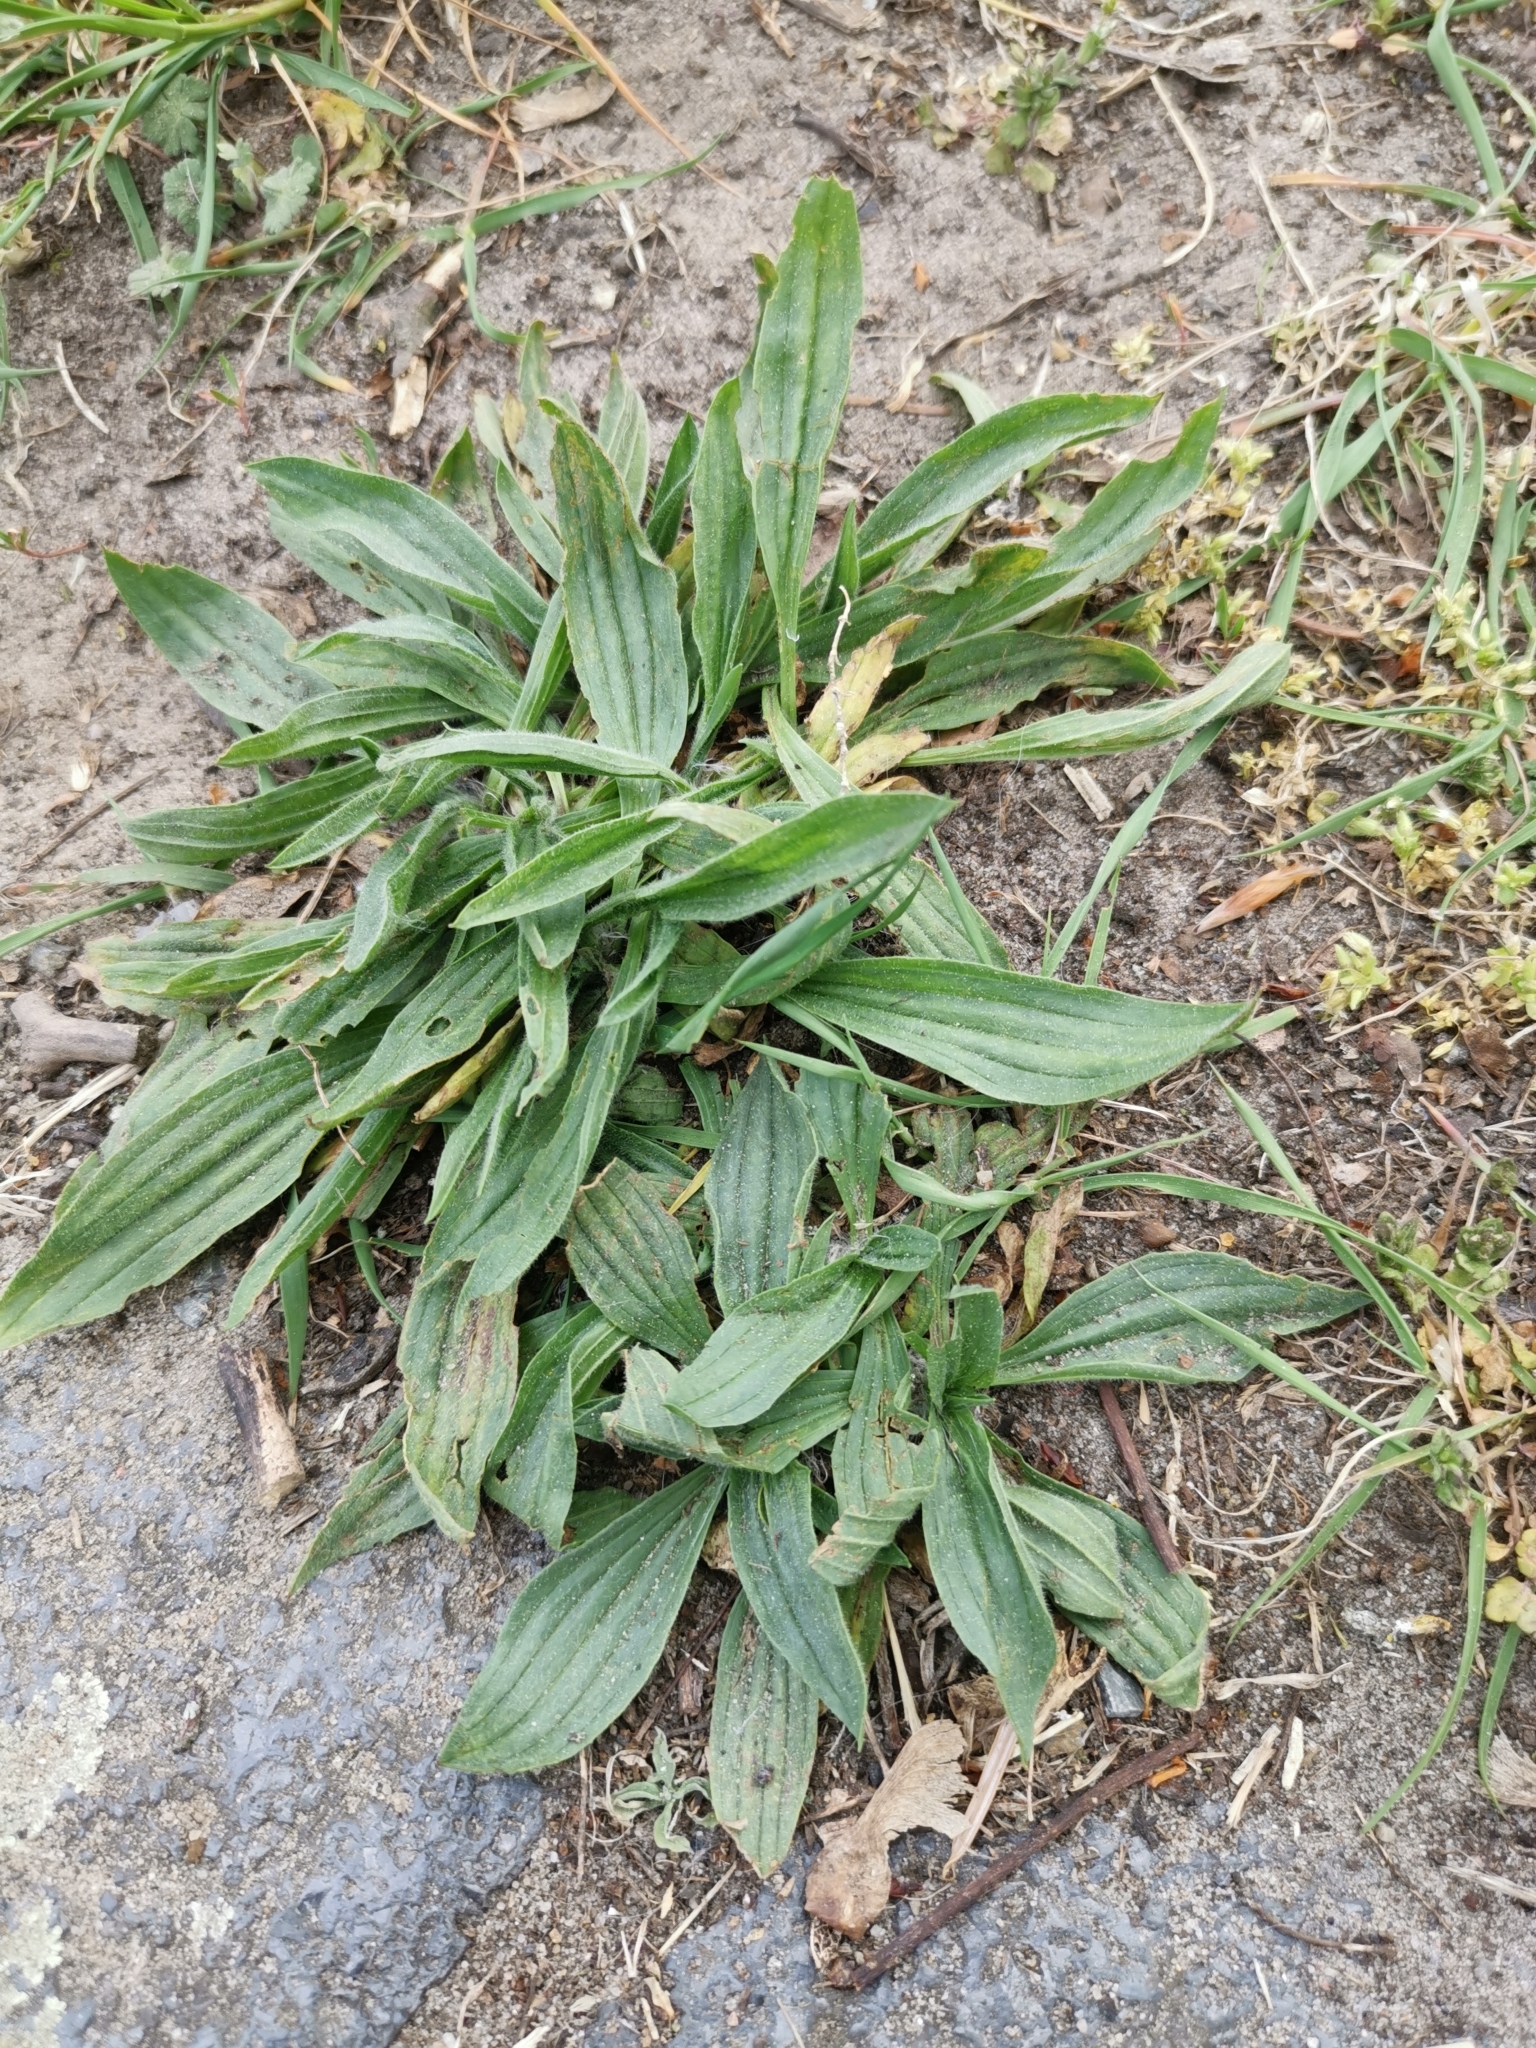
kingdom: Plantae
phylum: Tracheophyta
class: Magnoliopsida
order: Lamiales
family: Plantaginaceae
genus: Plantago
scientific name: Plantago lanceolata
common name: Ribwort plantain
